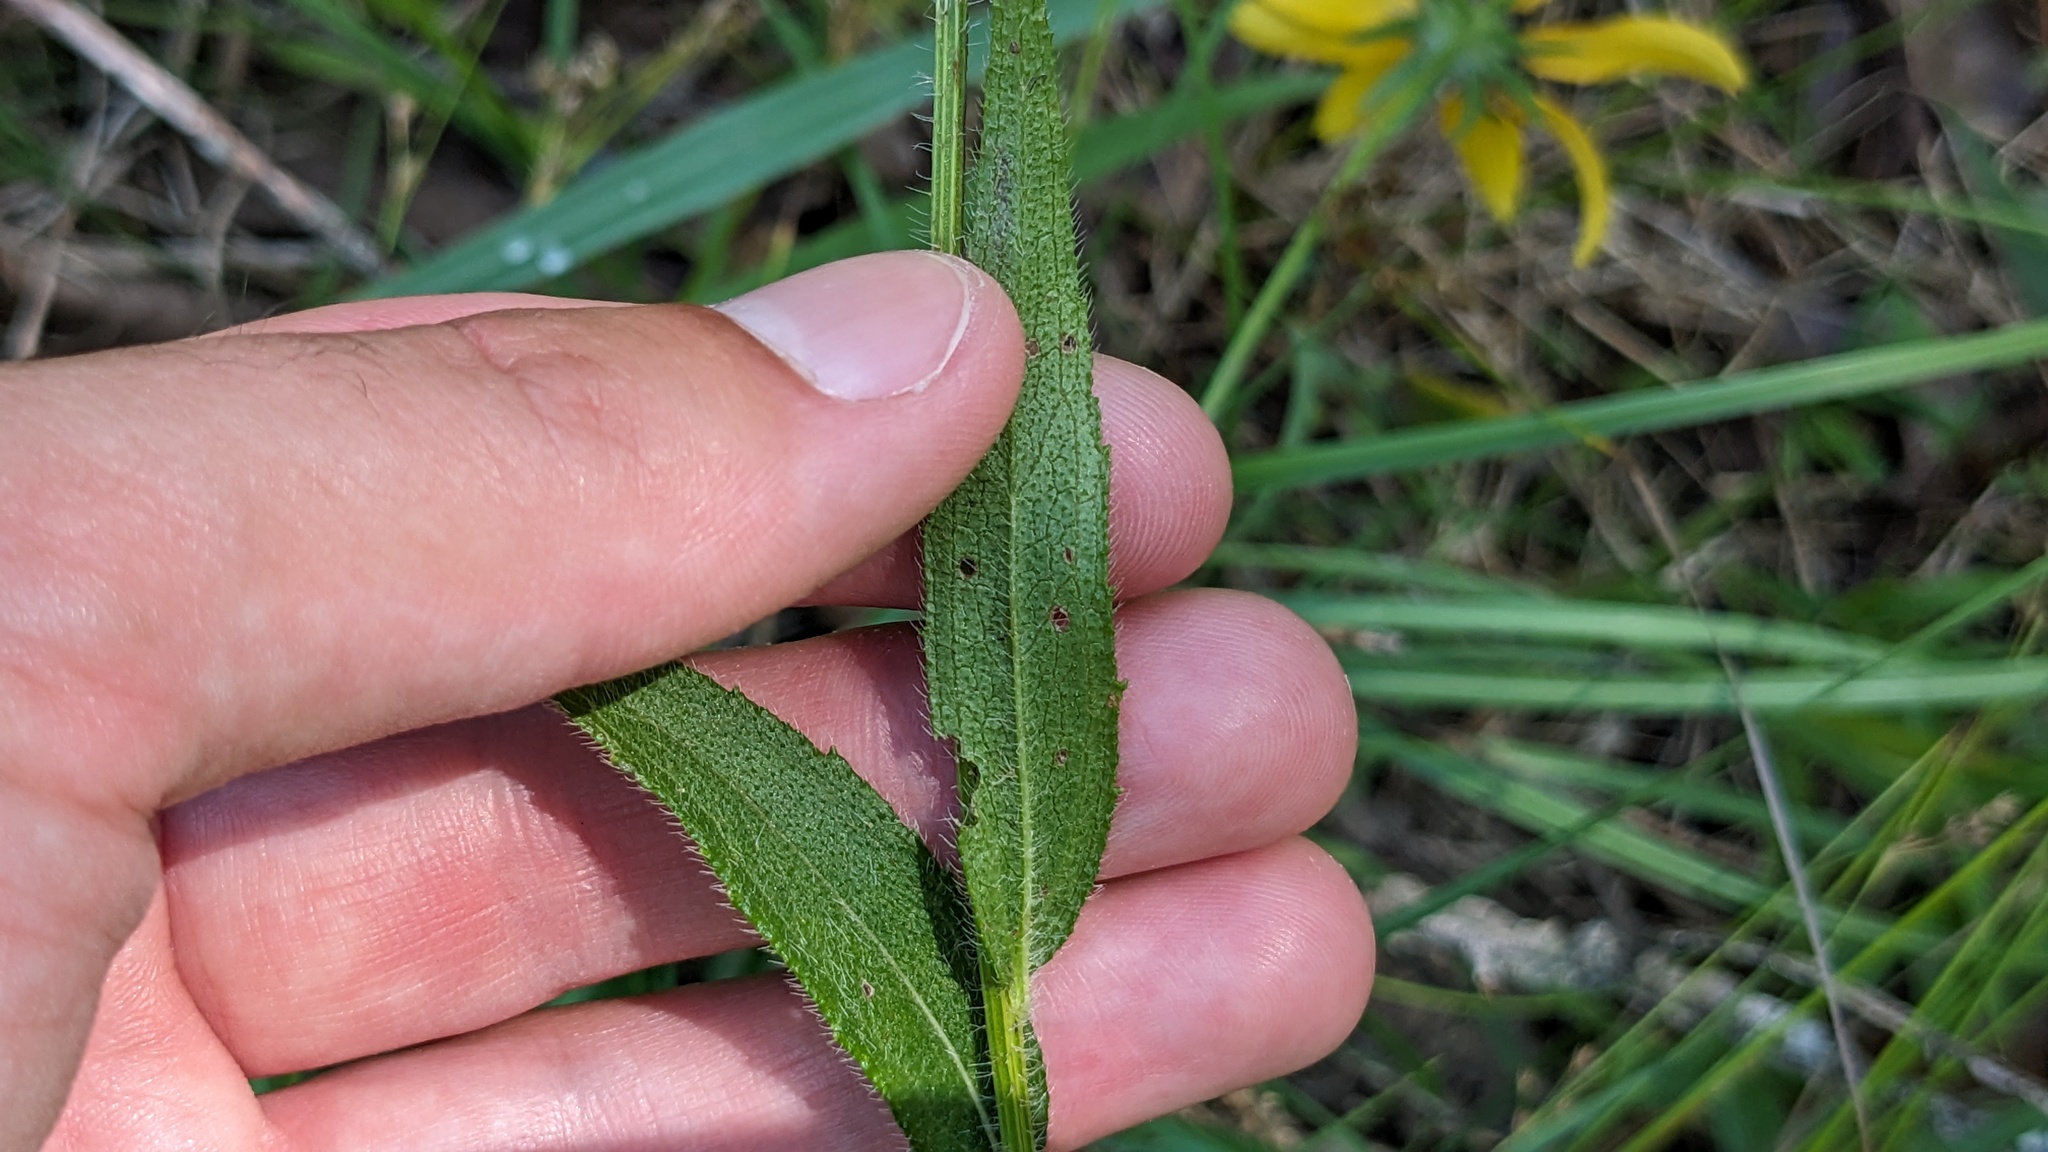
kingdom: Plantae
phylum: Tracheophyta
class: Magnoliopsida
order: Asterales
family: Asteraceae
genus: Rudbeckia
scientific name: Rudbeckia hirta
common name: Black-eyed-susan
